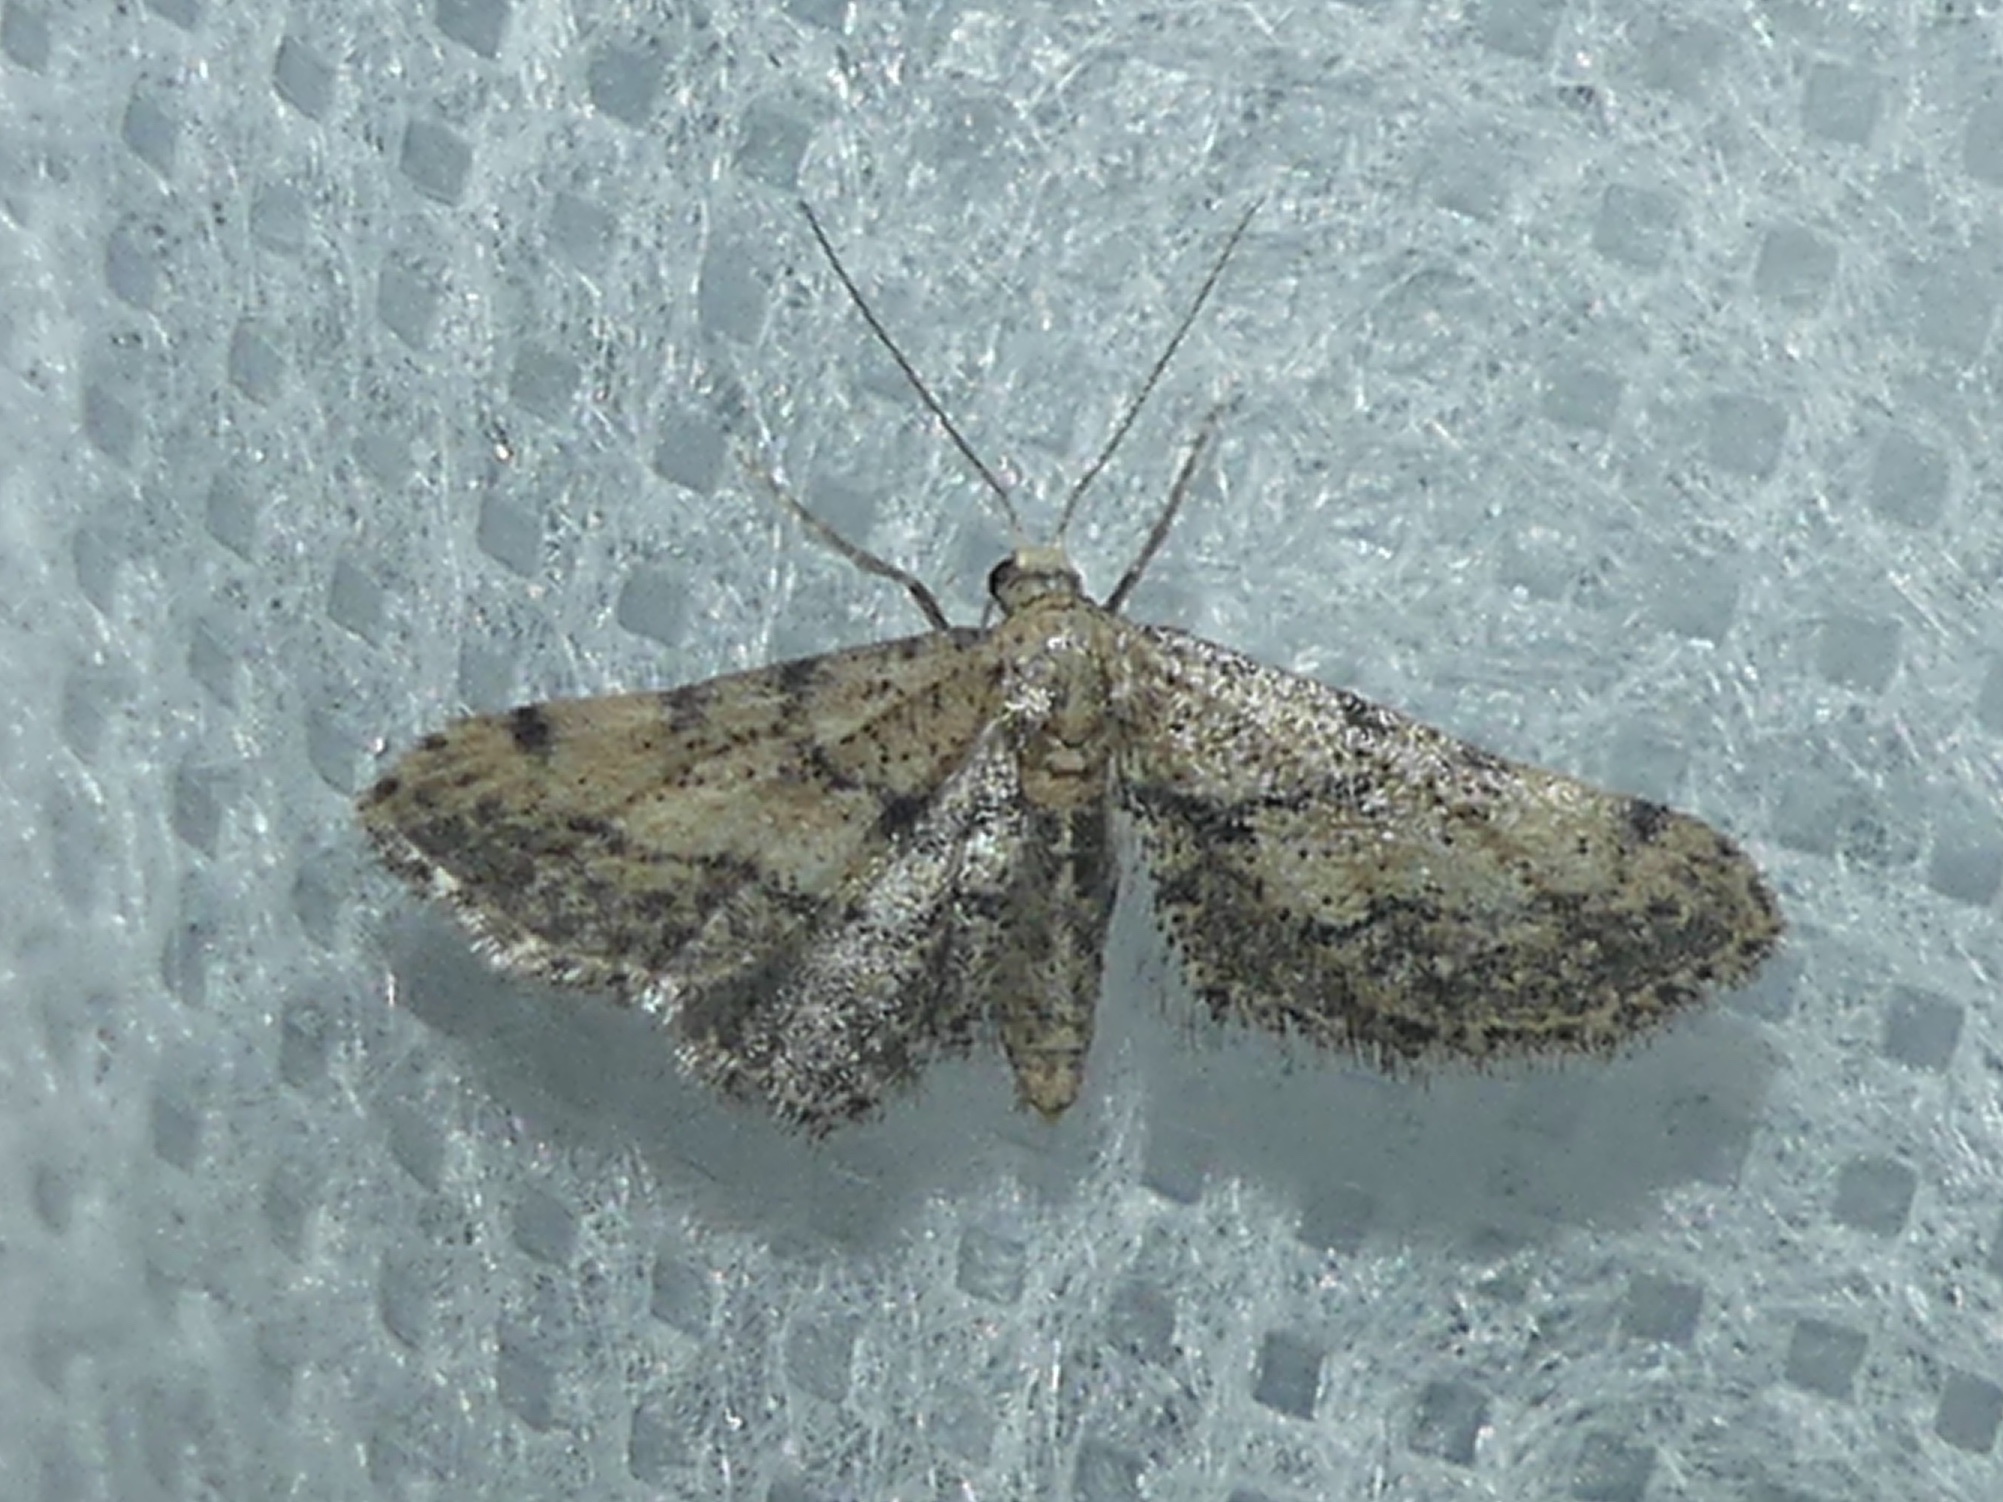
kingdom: Animalia
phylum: Arthropoda
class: Insecta
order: Lepidoptera
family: Geometridae
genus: Idaea
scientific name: Idaea incalcarata
